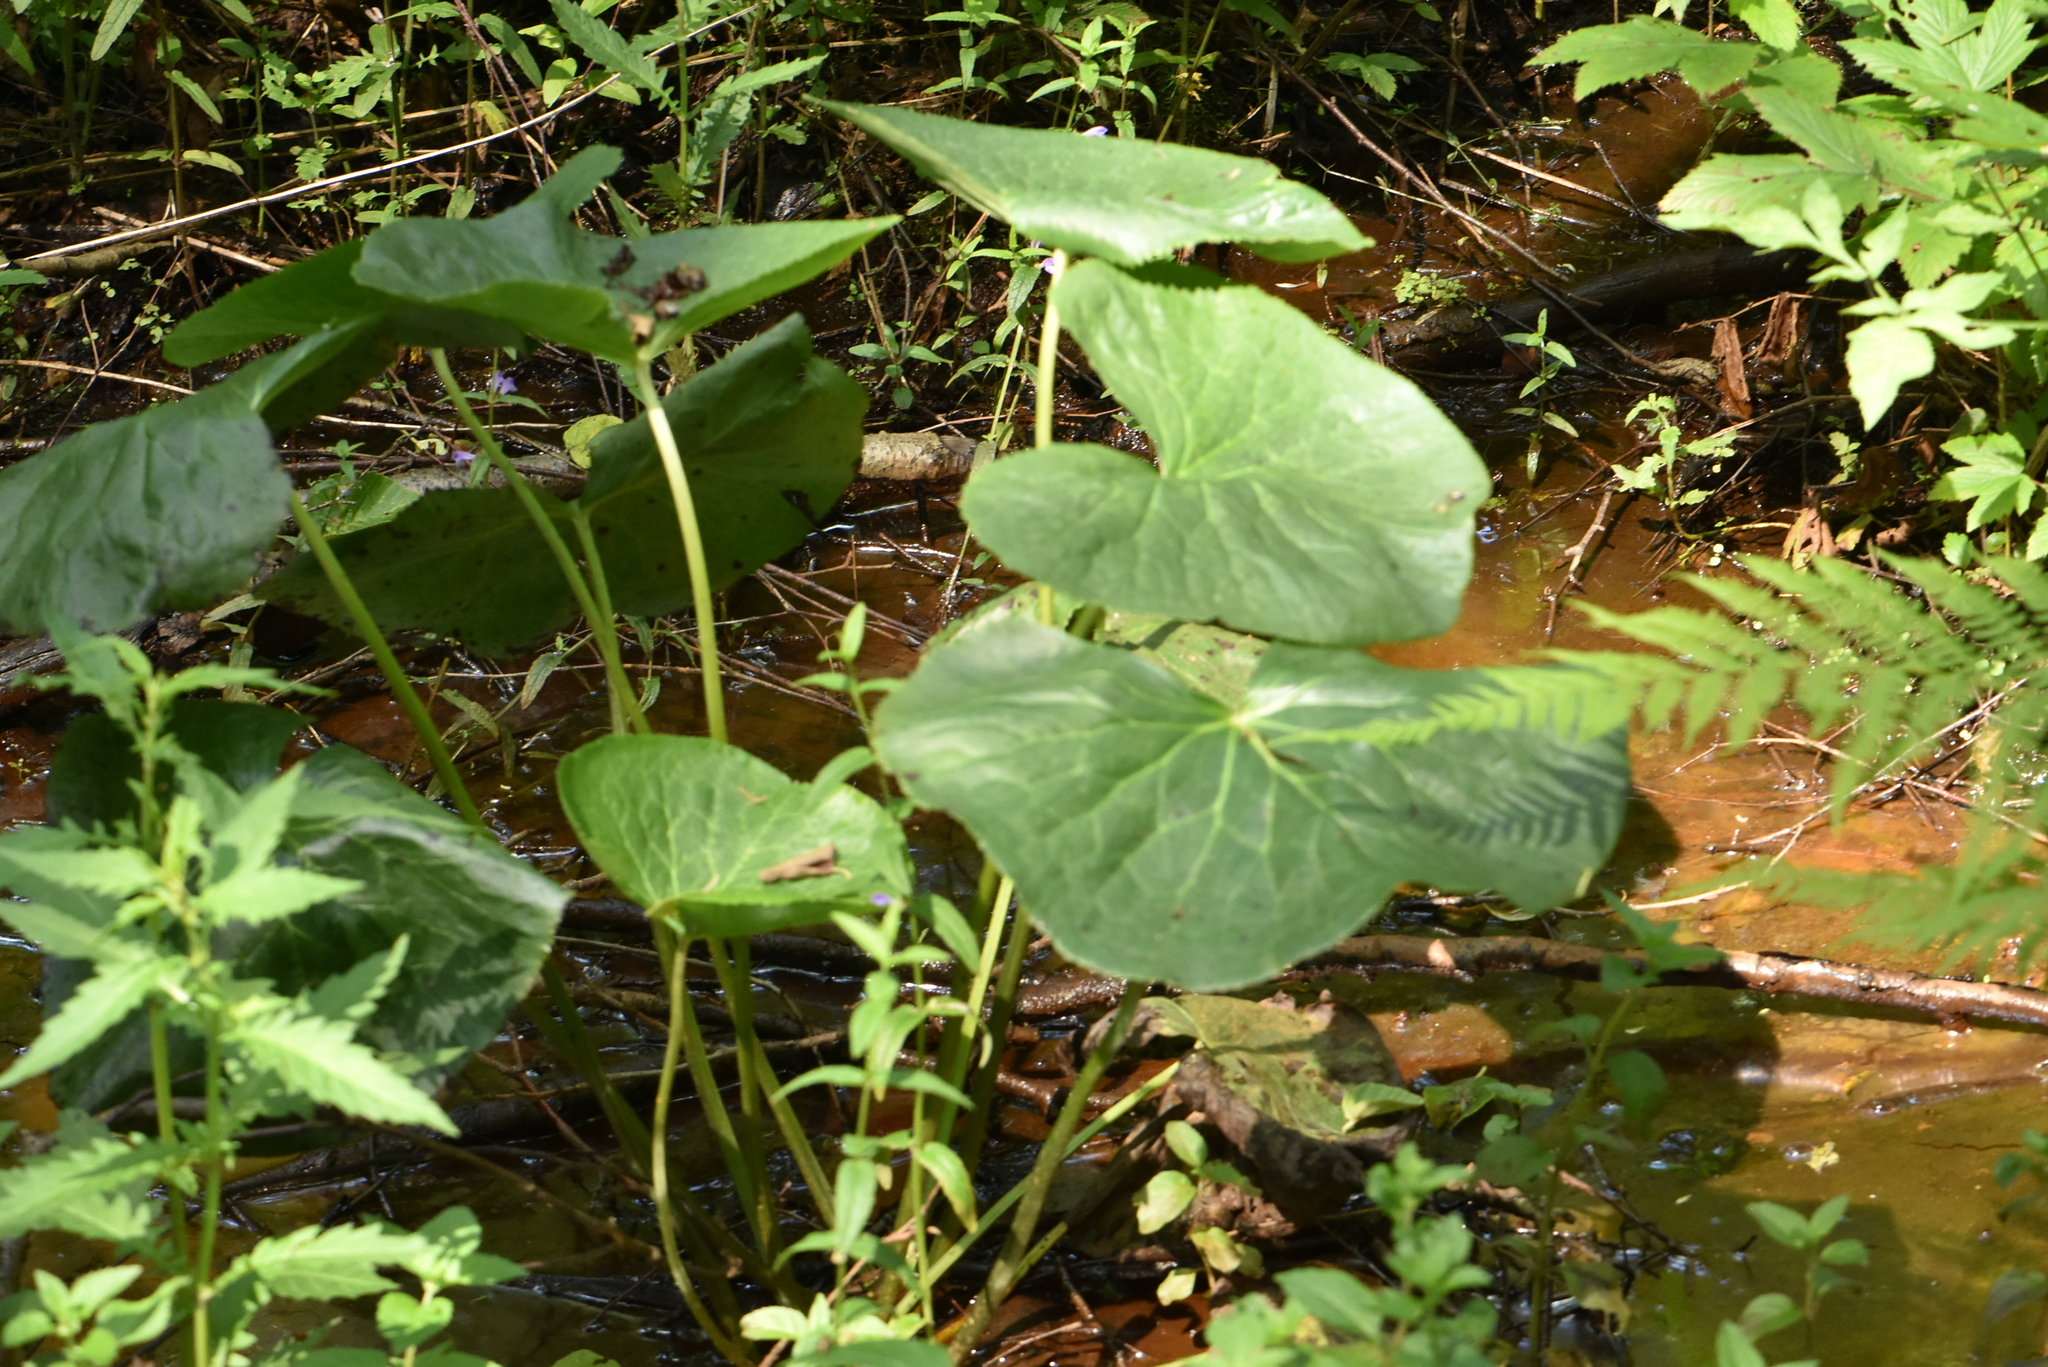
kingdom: Plantae
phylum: Tracheophyta
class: Magnoliopsida
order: Ranunculales
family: Ranunculaceae
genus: Caltha
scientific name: Caltha palustris
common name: Marsh marigold
